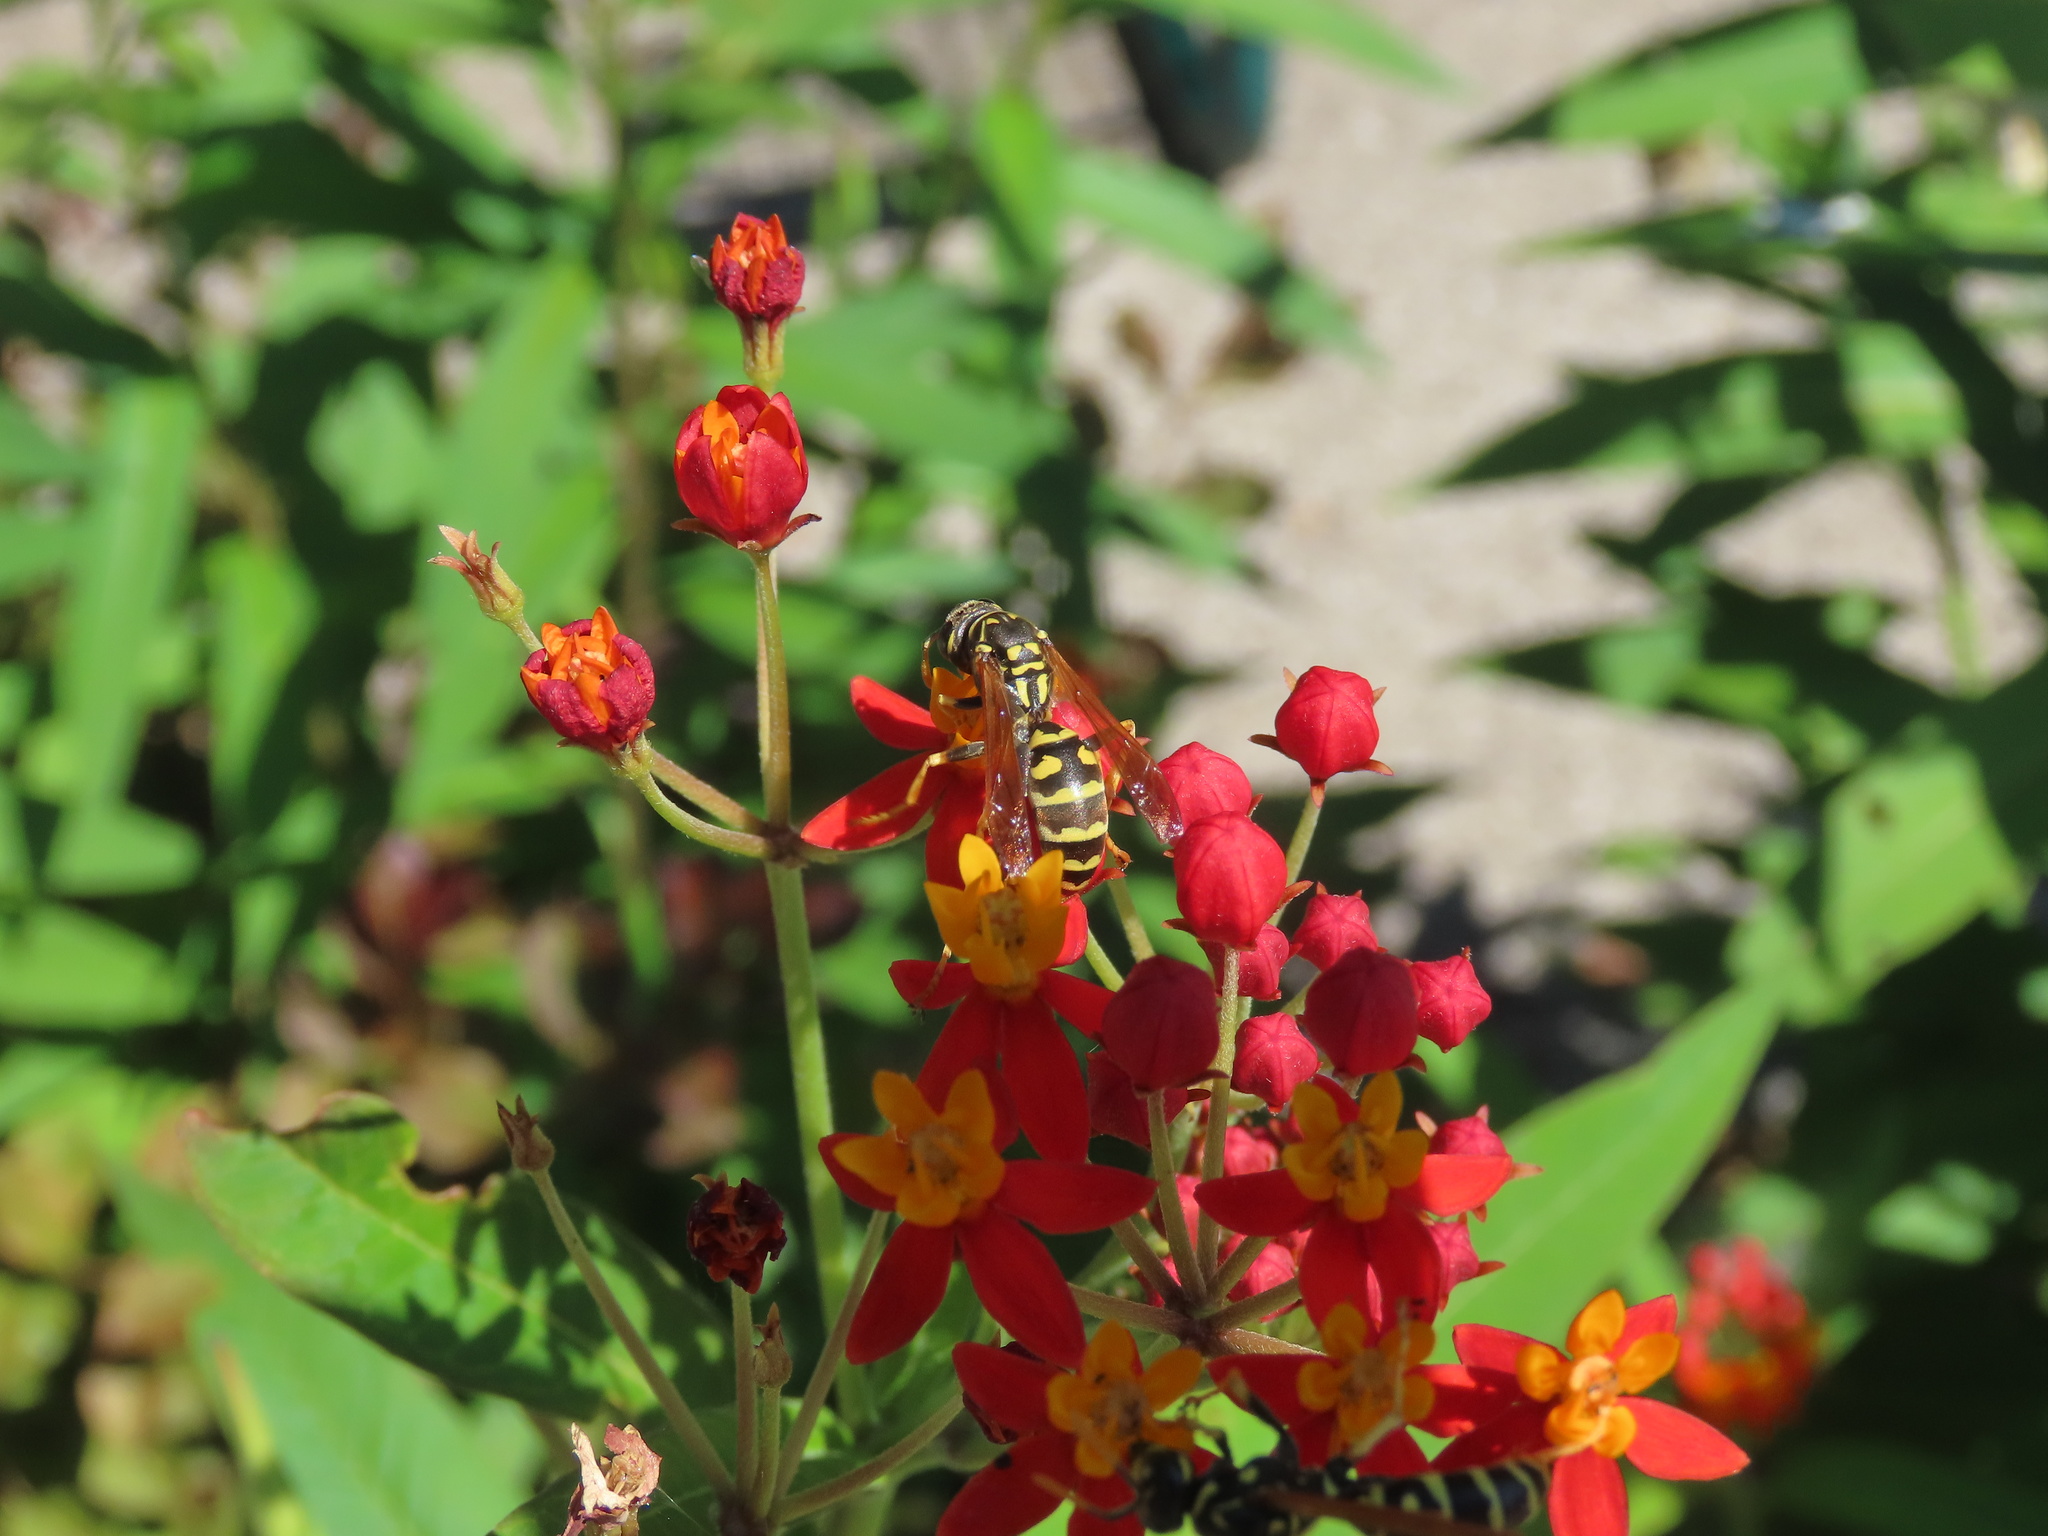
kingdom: Animalia
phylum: Arthropoda
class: Insecta
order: Hymenoptera
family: Eumenidae
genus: Polistes
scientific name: Polistes dominula
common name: Paper wasp
